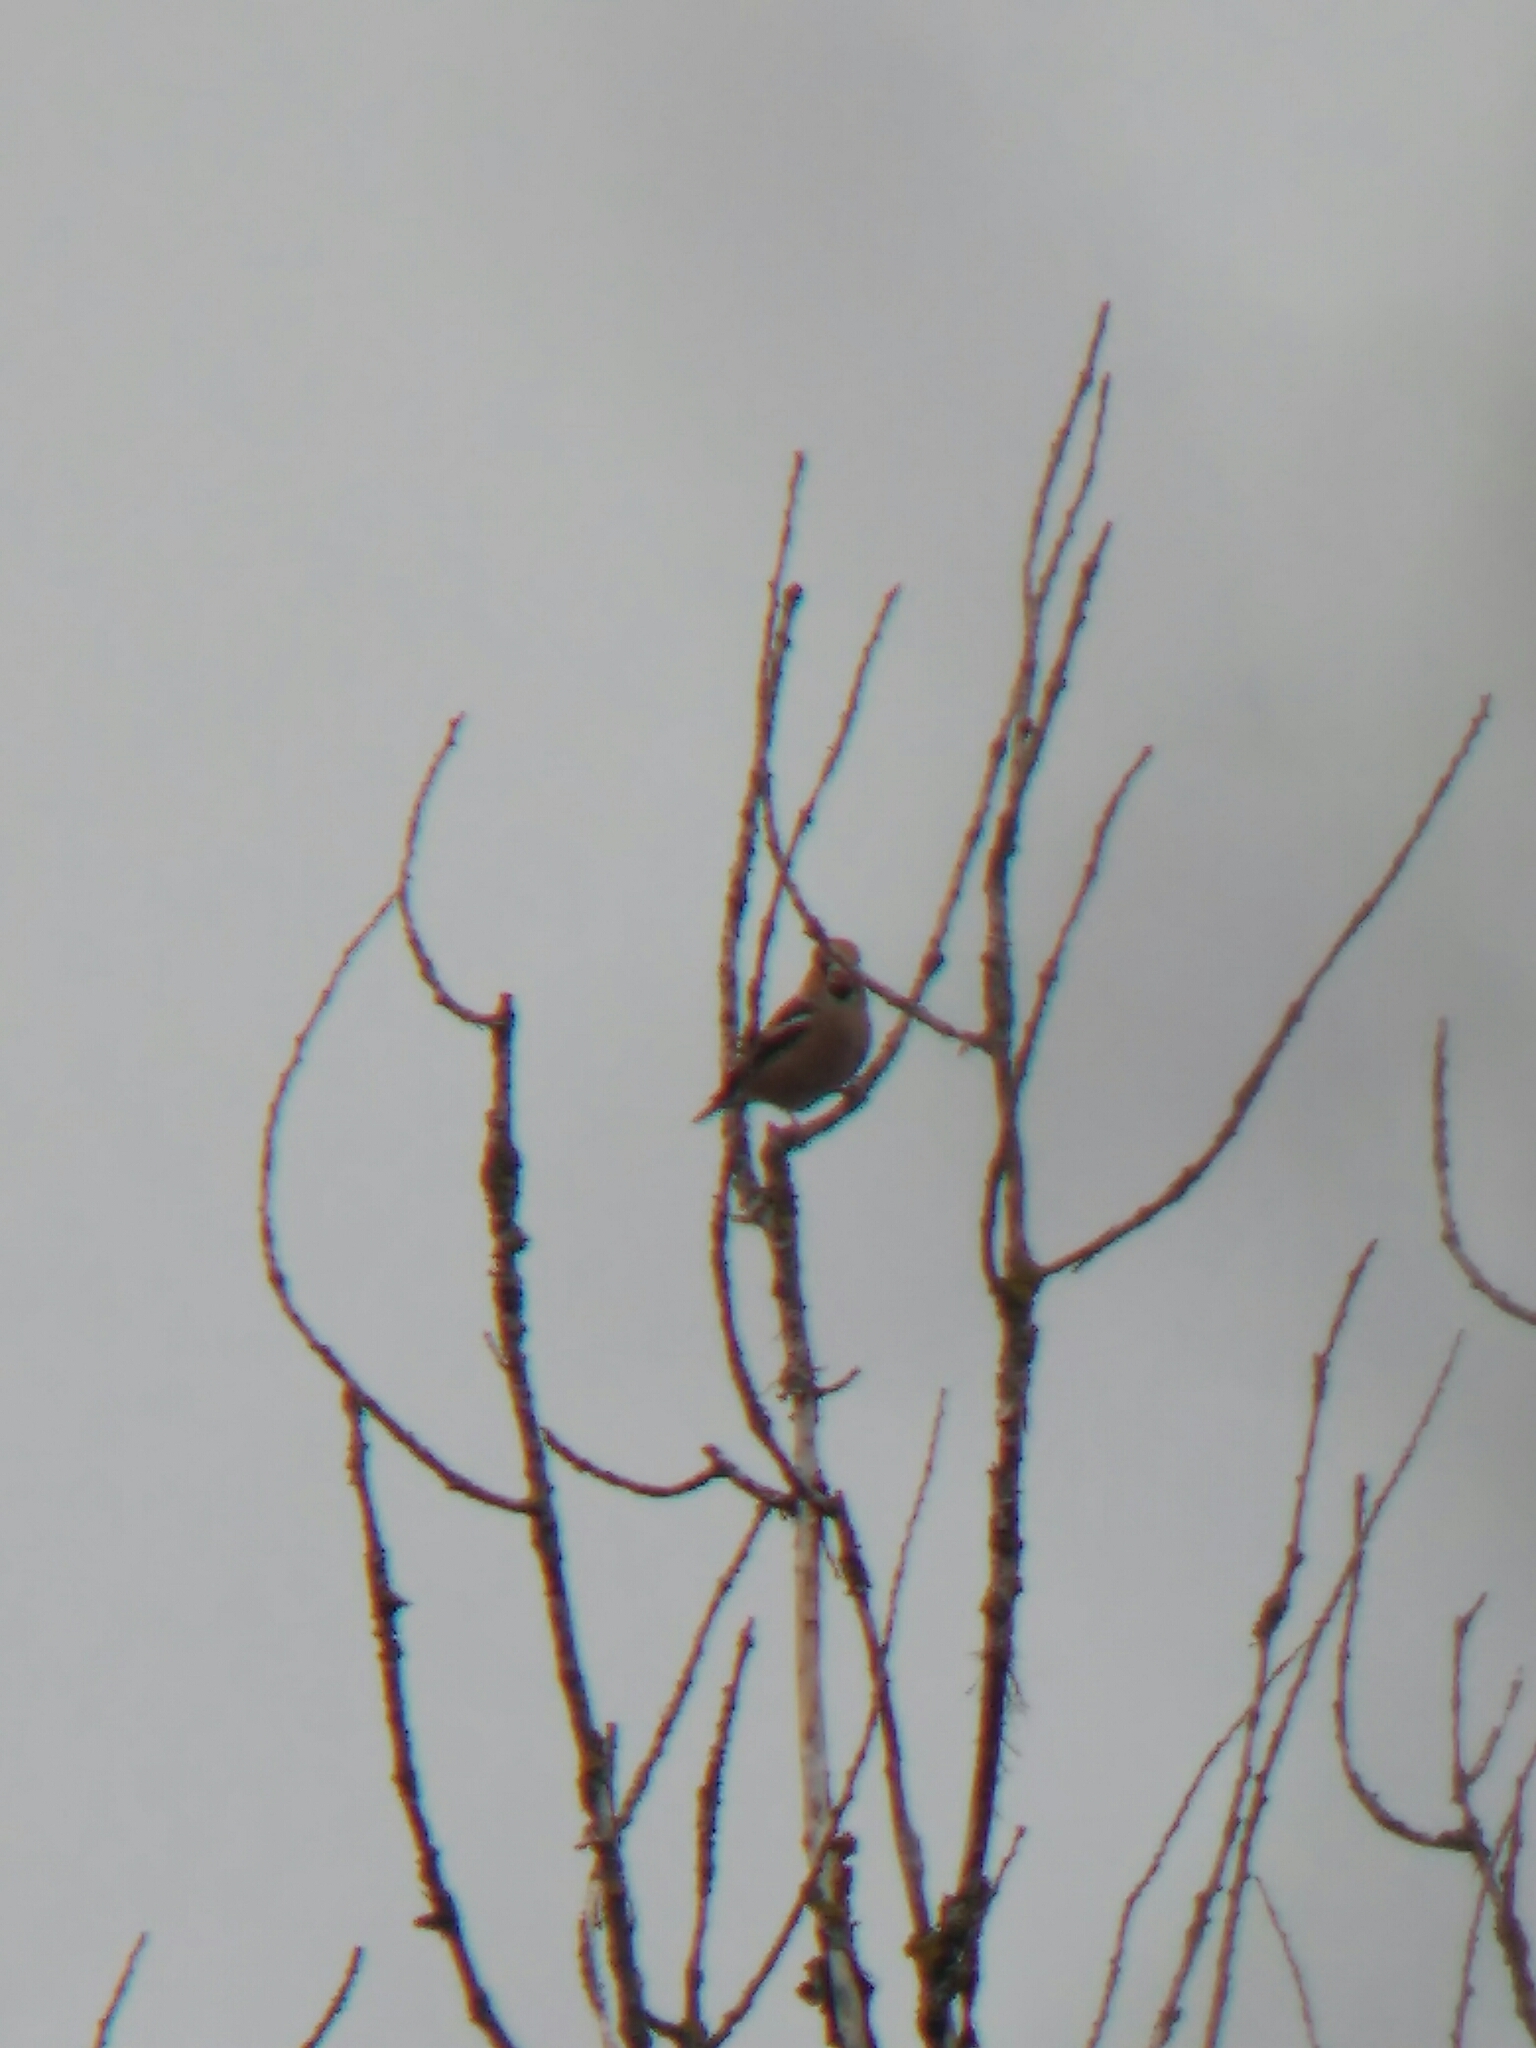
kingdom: Animalia
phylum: Chordata
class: Aves
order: Passeriformes
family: Fringillidae
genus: Coccothraustes
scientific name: Coccothraustes coccothraustes
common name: Hawfinch
